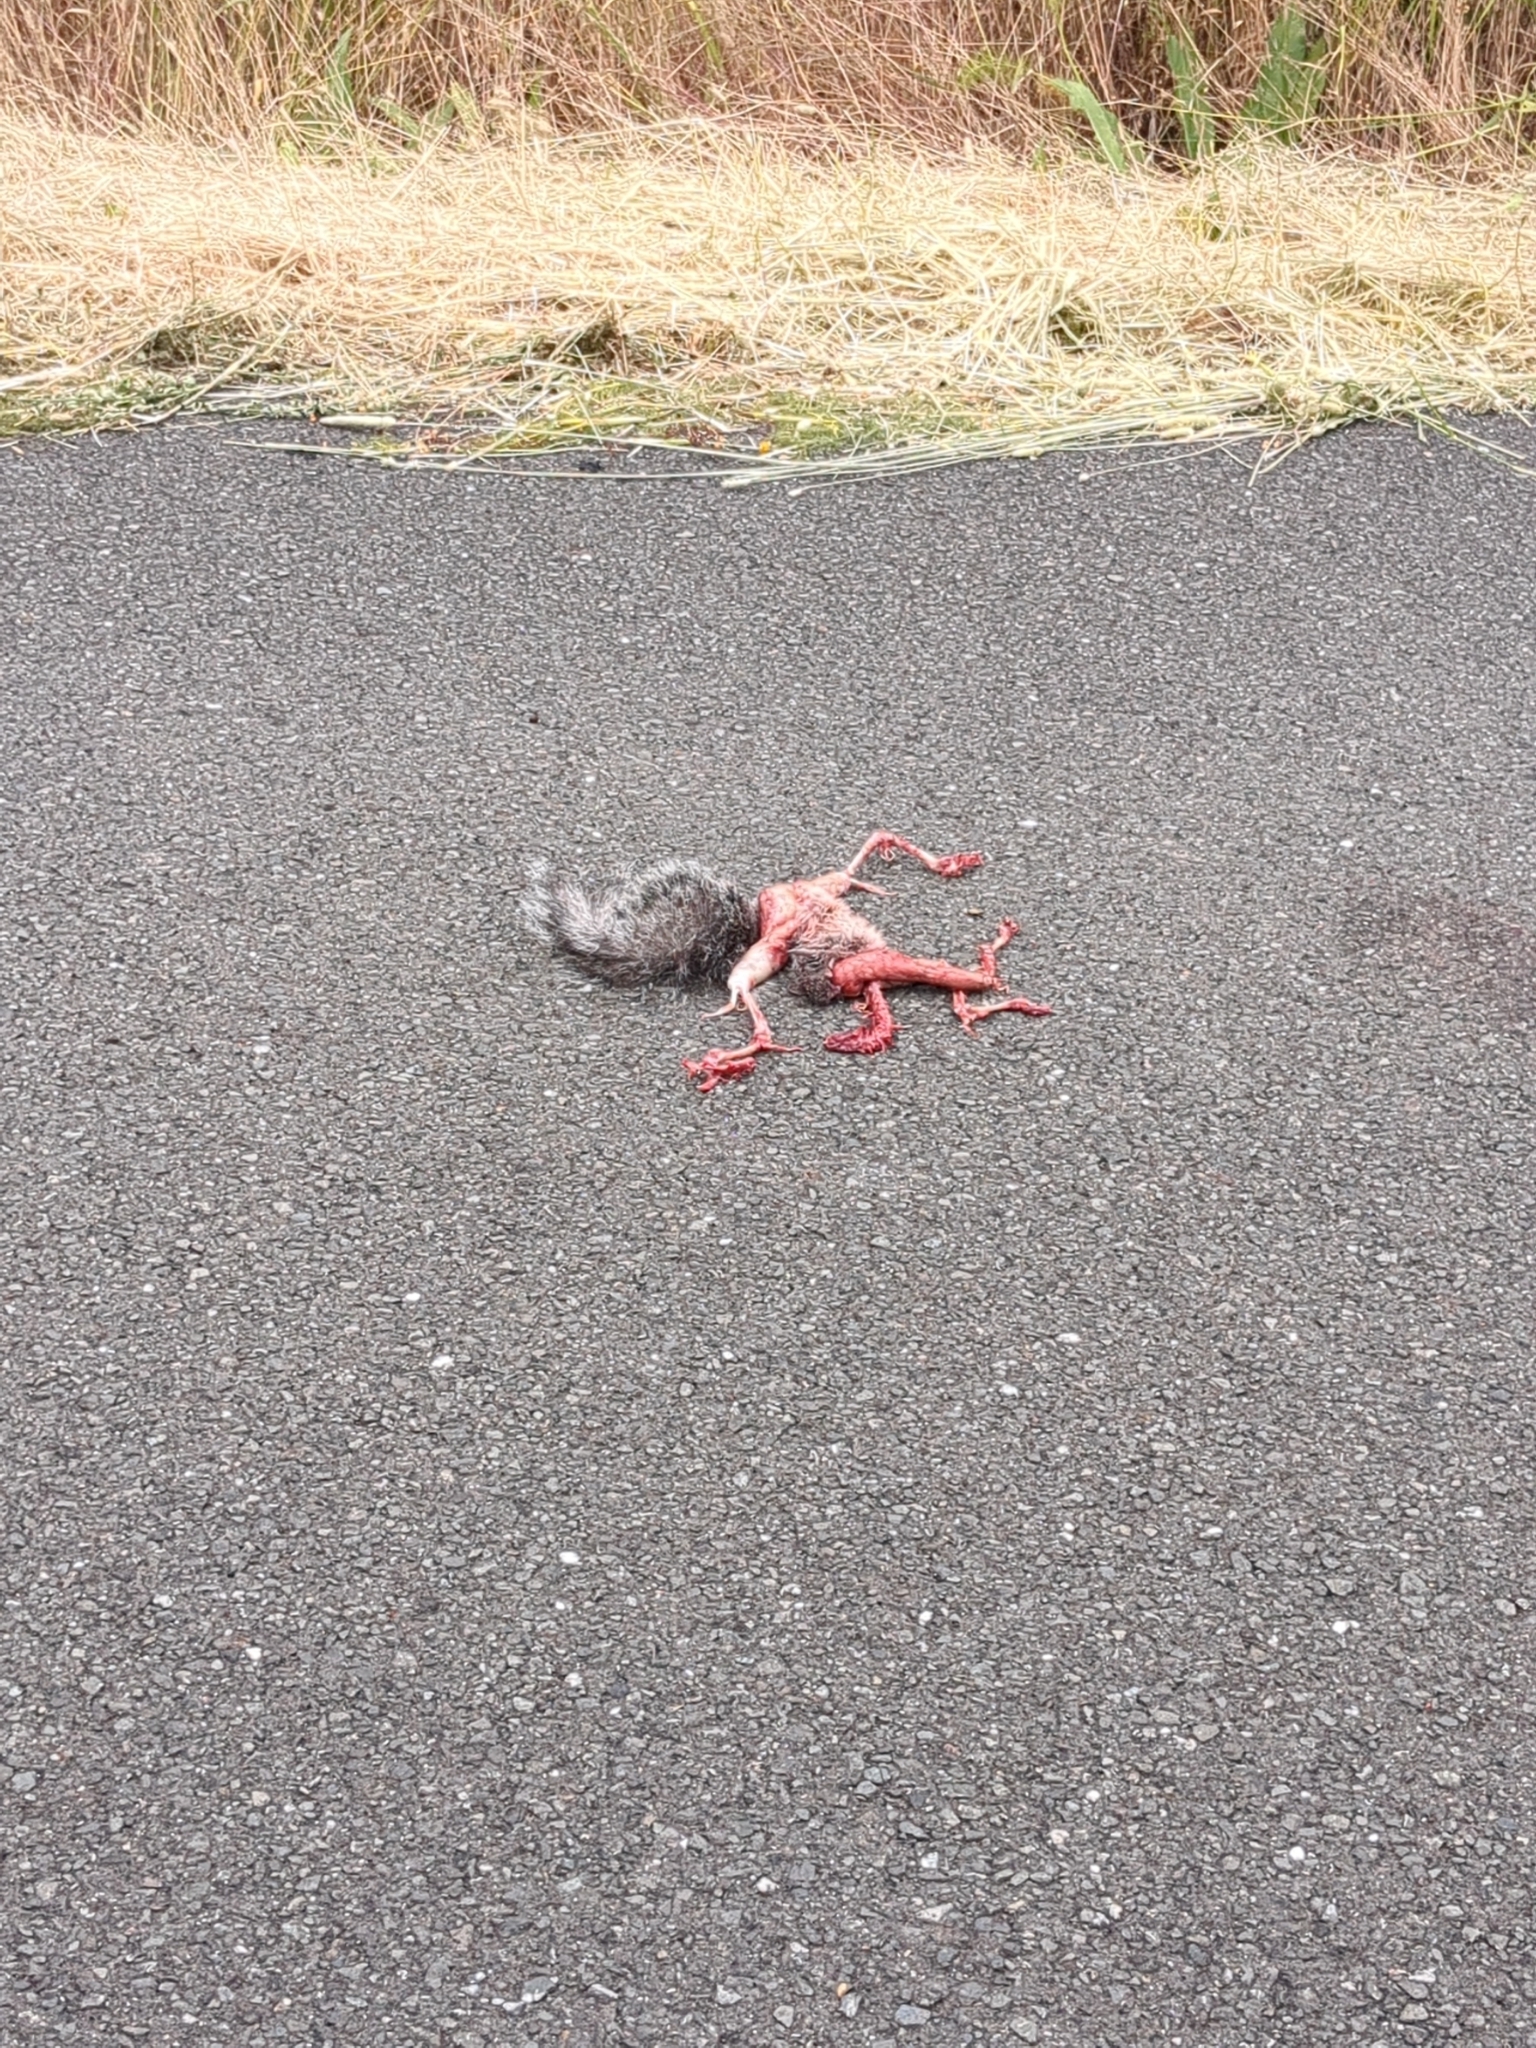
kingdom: Animalia
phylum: Chordata
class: Mammalia
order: Rodentia
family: Sciuridae
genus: Sciurus
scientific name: Sciurus griseus
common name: Western gray squirrel
